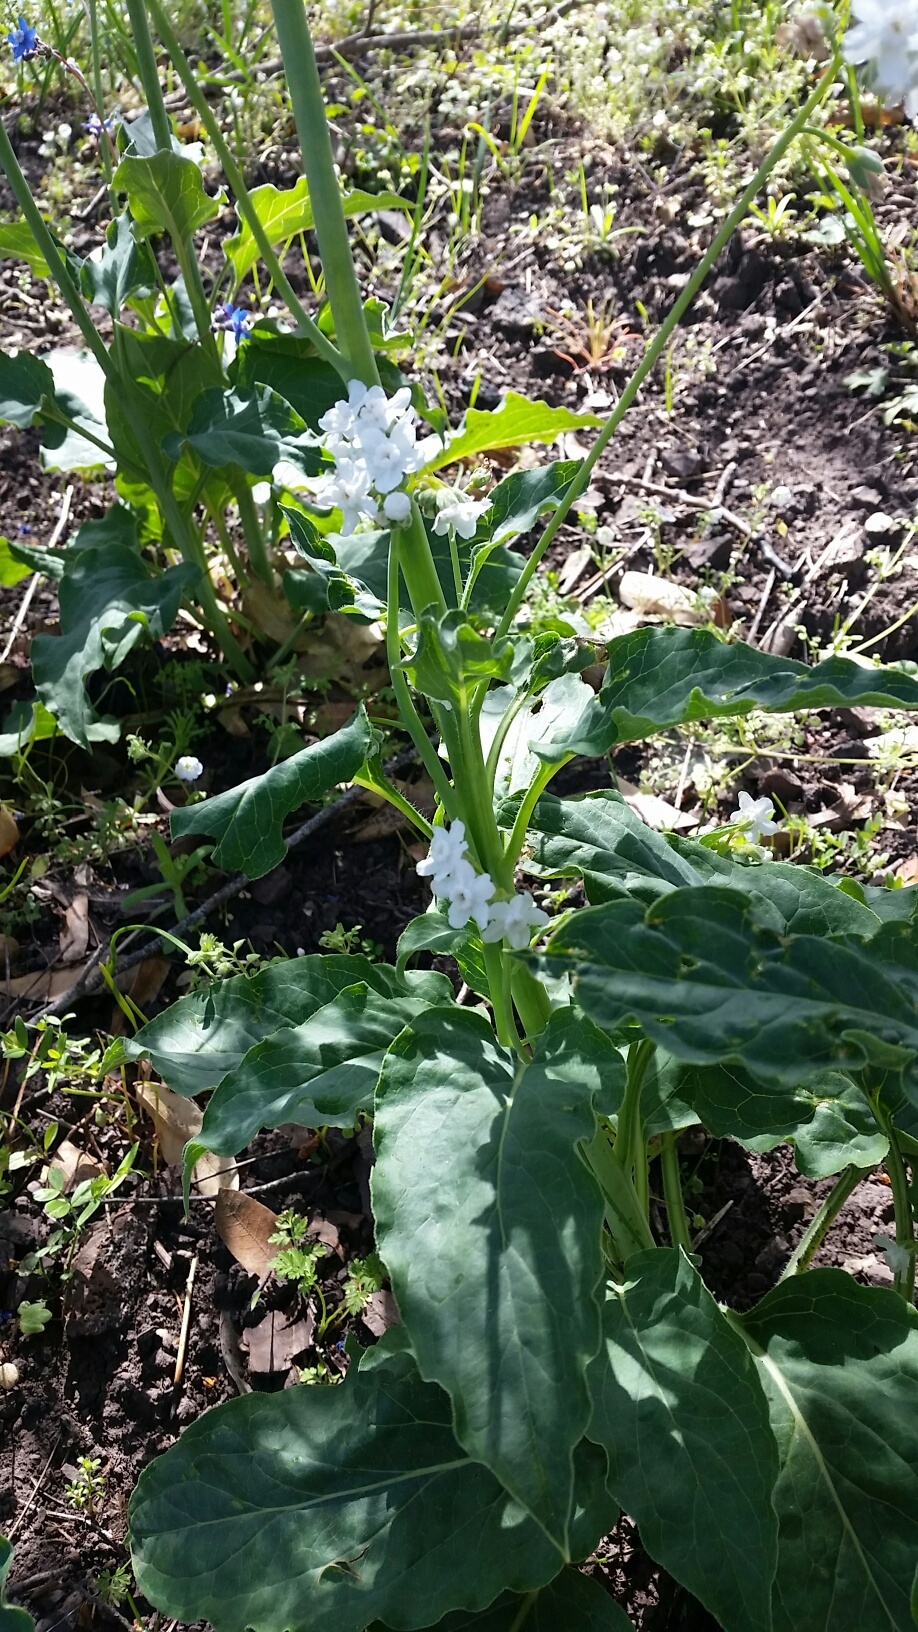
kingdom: Plantae
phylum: Tracheophyta
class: Magnoliopsida
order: Boraginales
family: Boraginaceae
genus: Adelinia
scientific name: Adelinia grande
